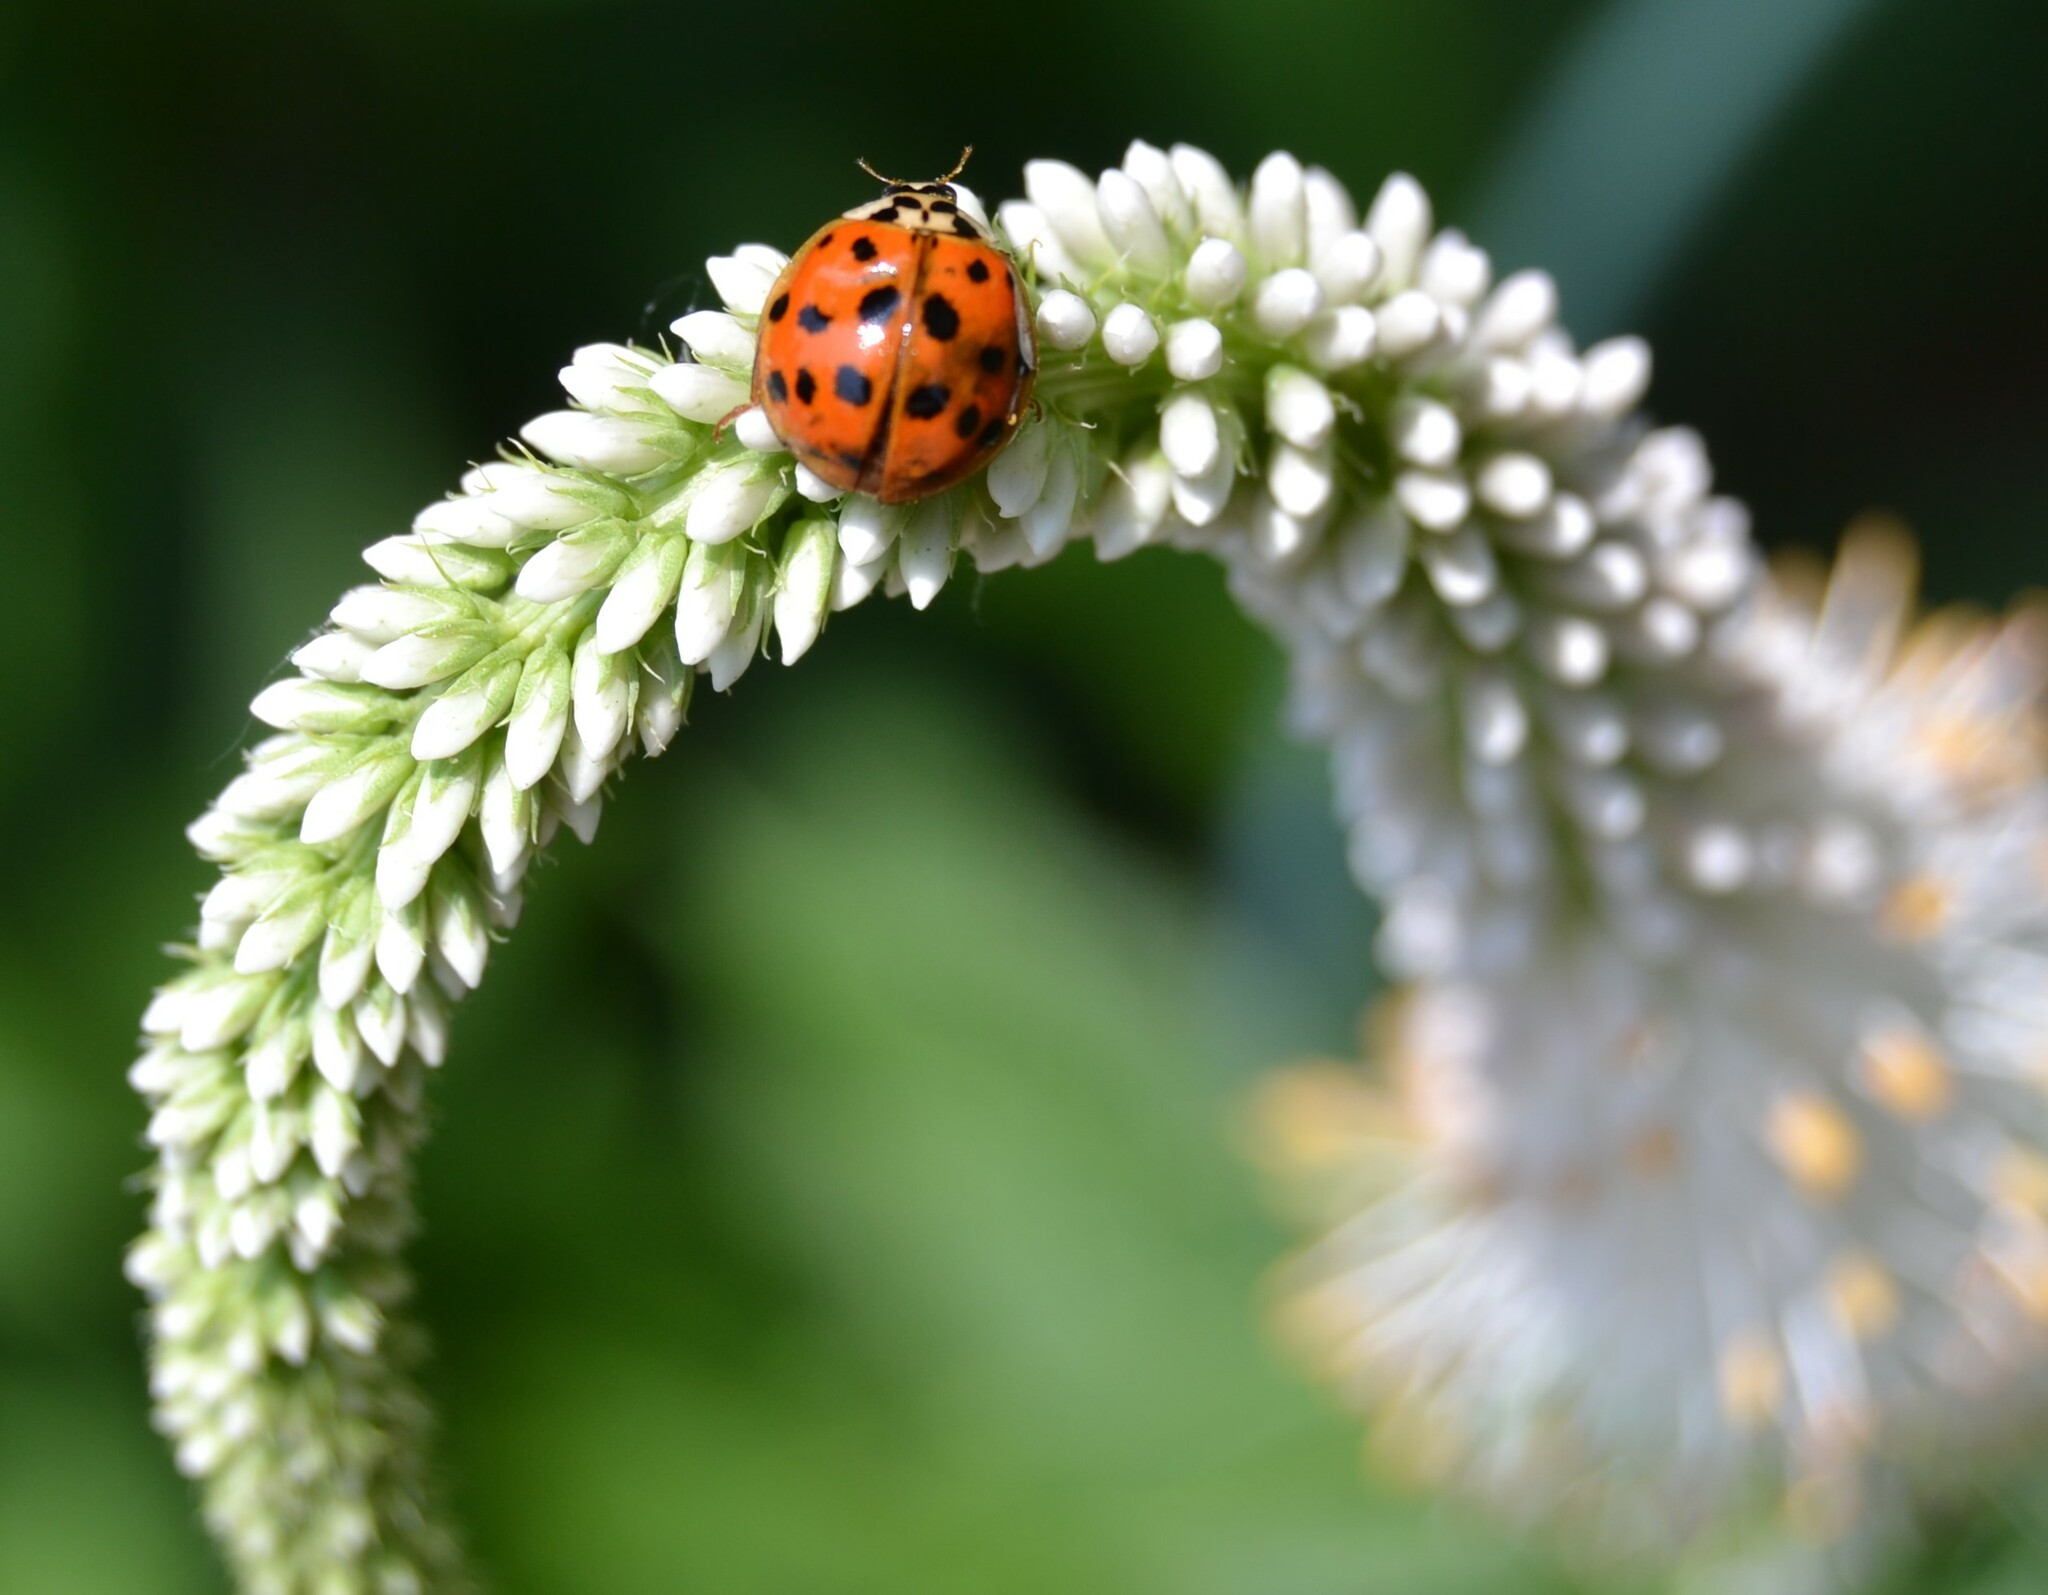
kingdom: Animalia
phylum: Arthropoda
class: Insecta
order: Coleoptera
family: Coccinellidae
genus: Harmonia
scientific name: Harmonia axyridis
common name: Harlequin ladybird
